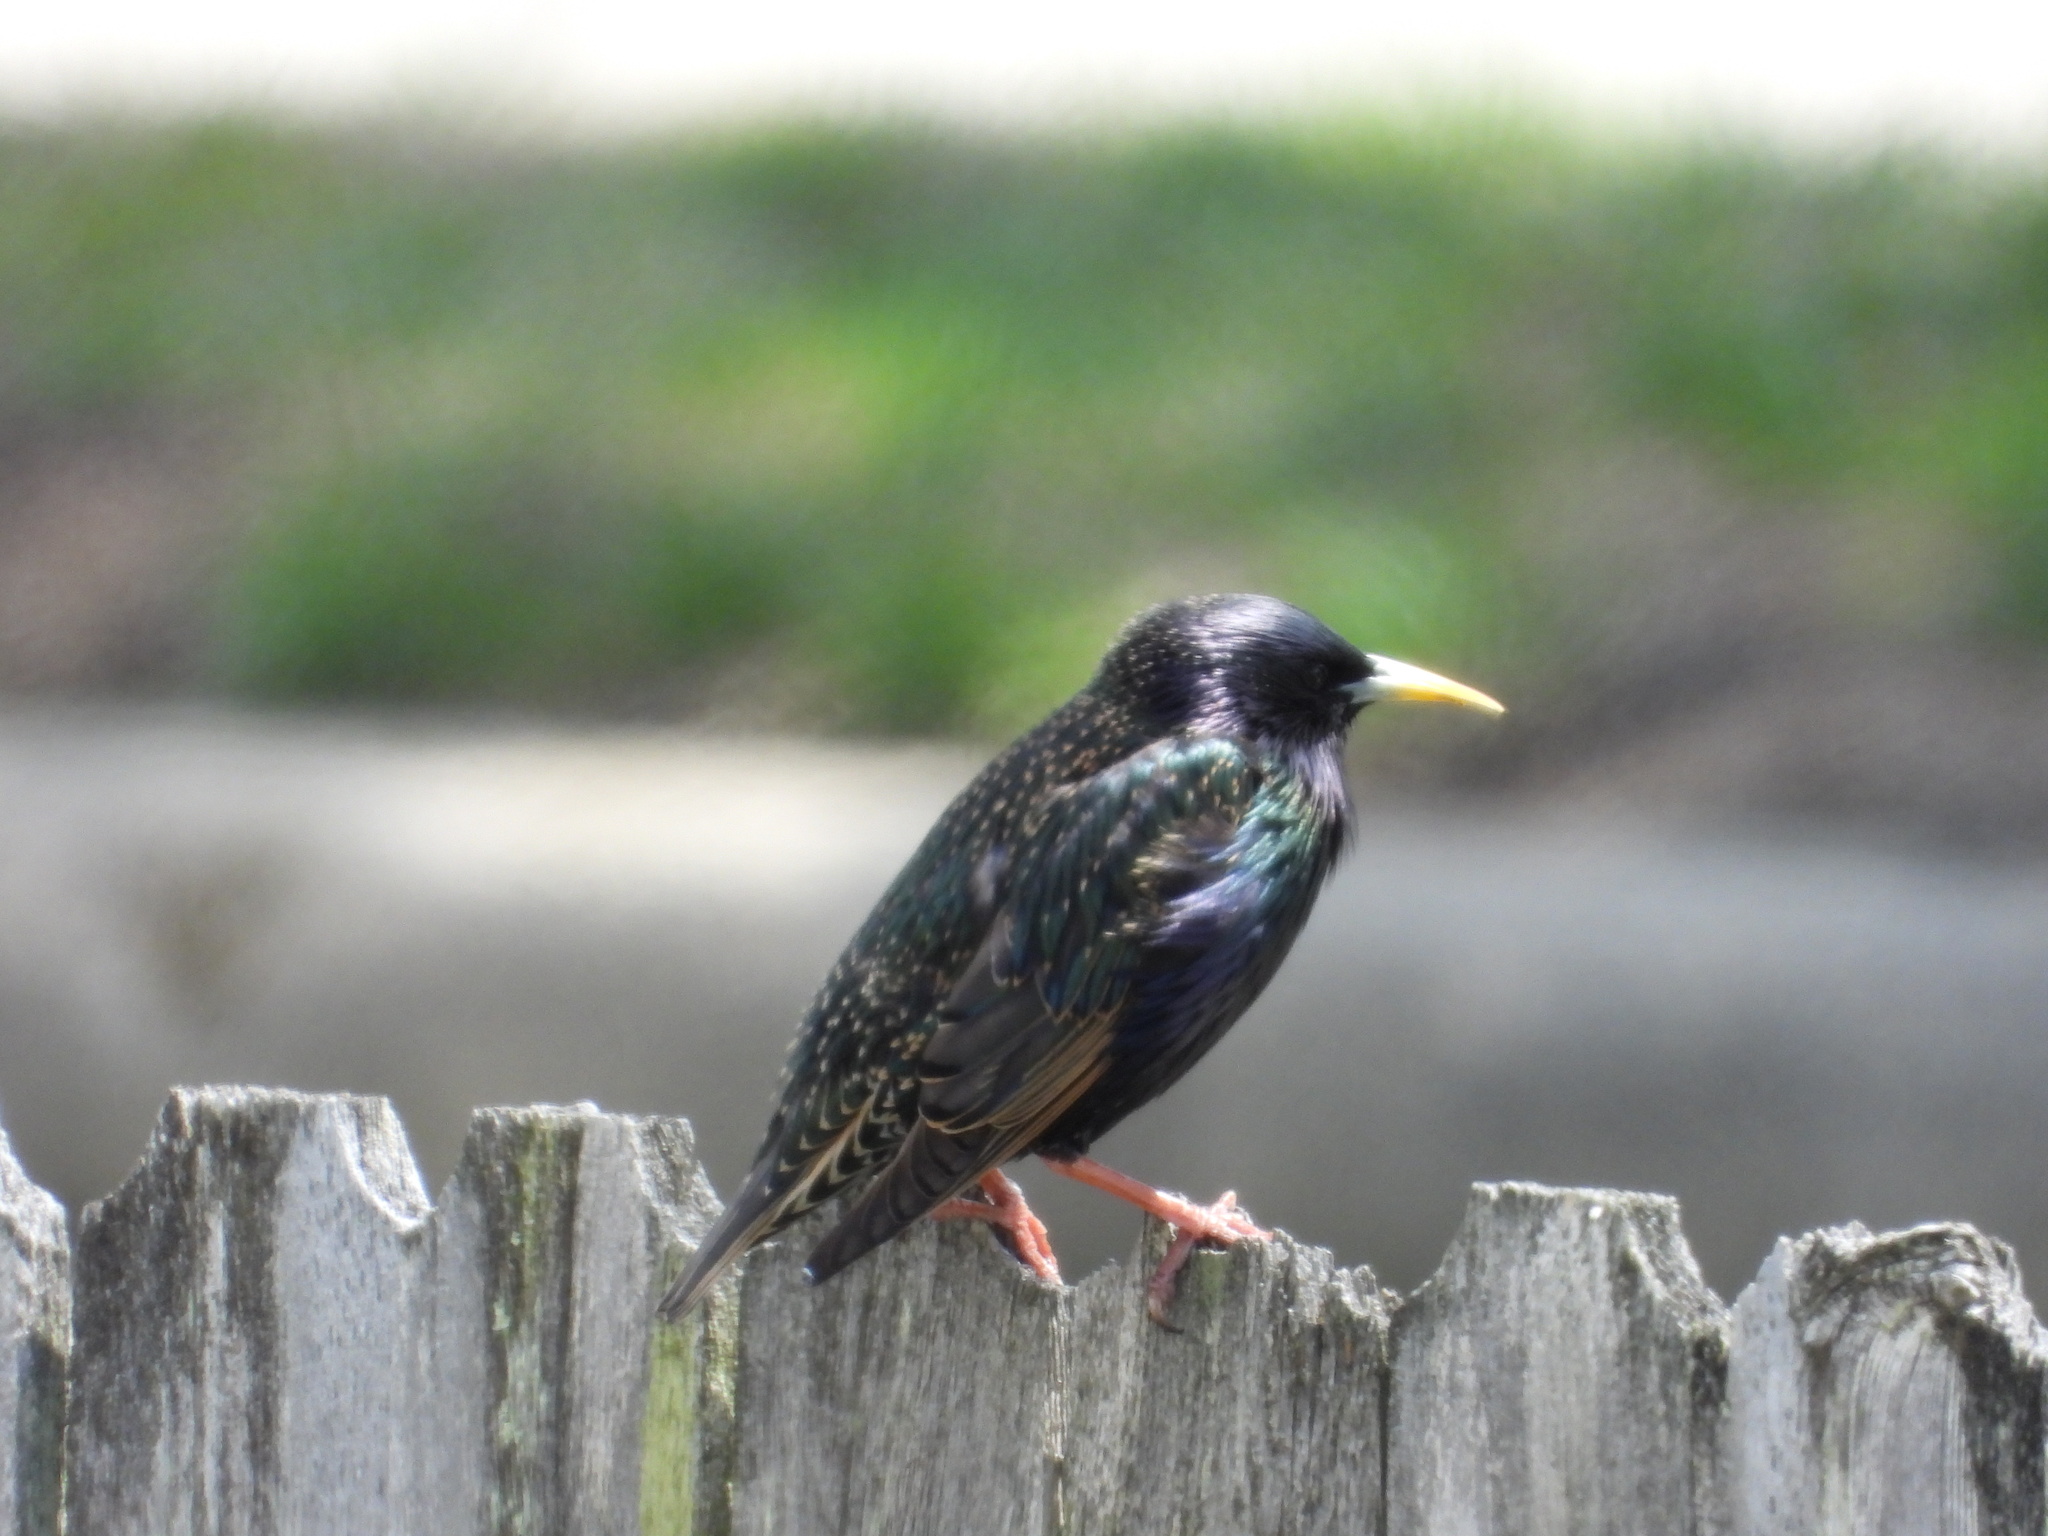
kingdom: Animalia
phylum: Chordata
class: Aves
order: Passeriformes
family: Sturnidae
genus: Sturnus
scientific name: Sturnus vulgaris
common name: Common starling
